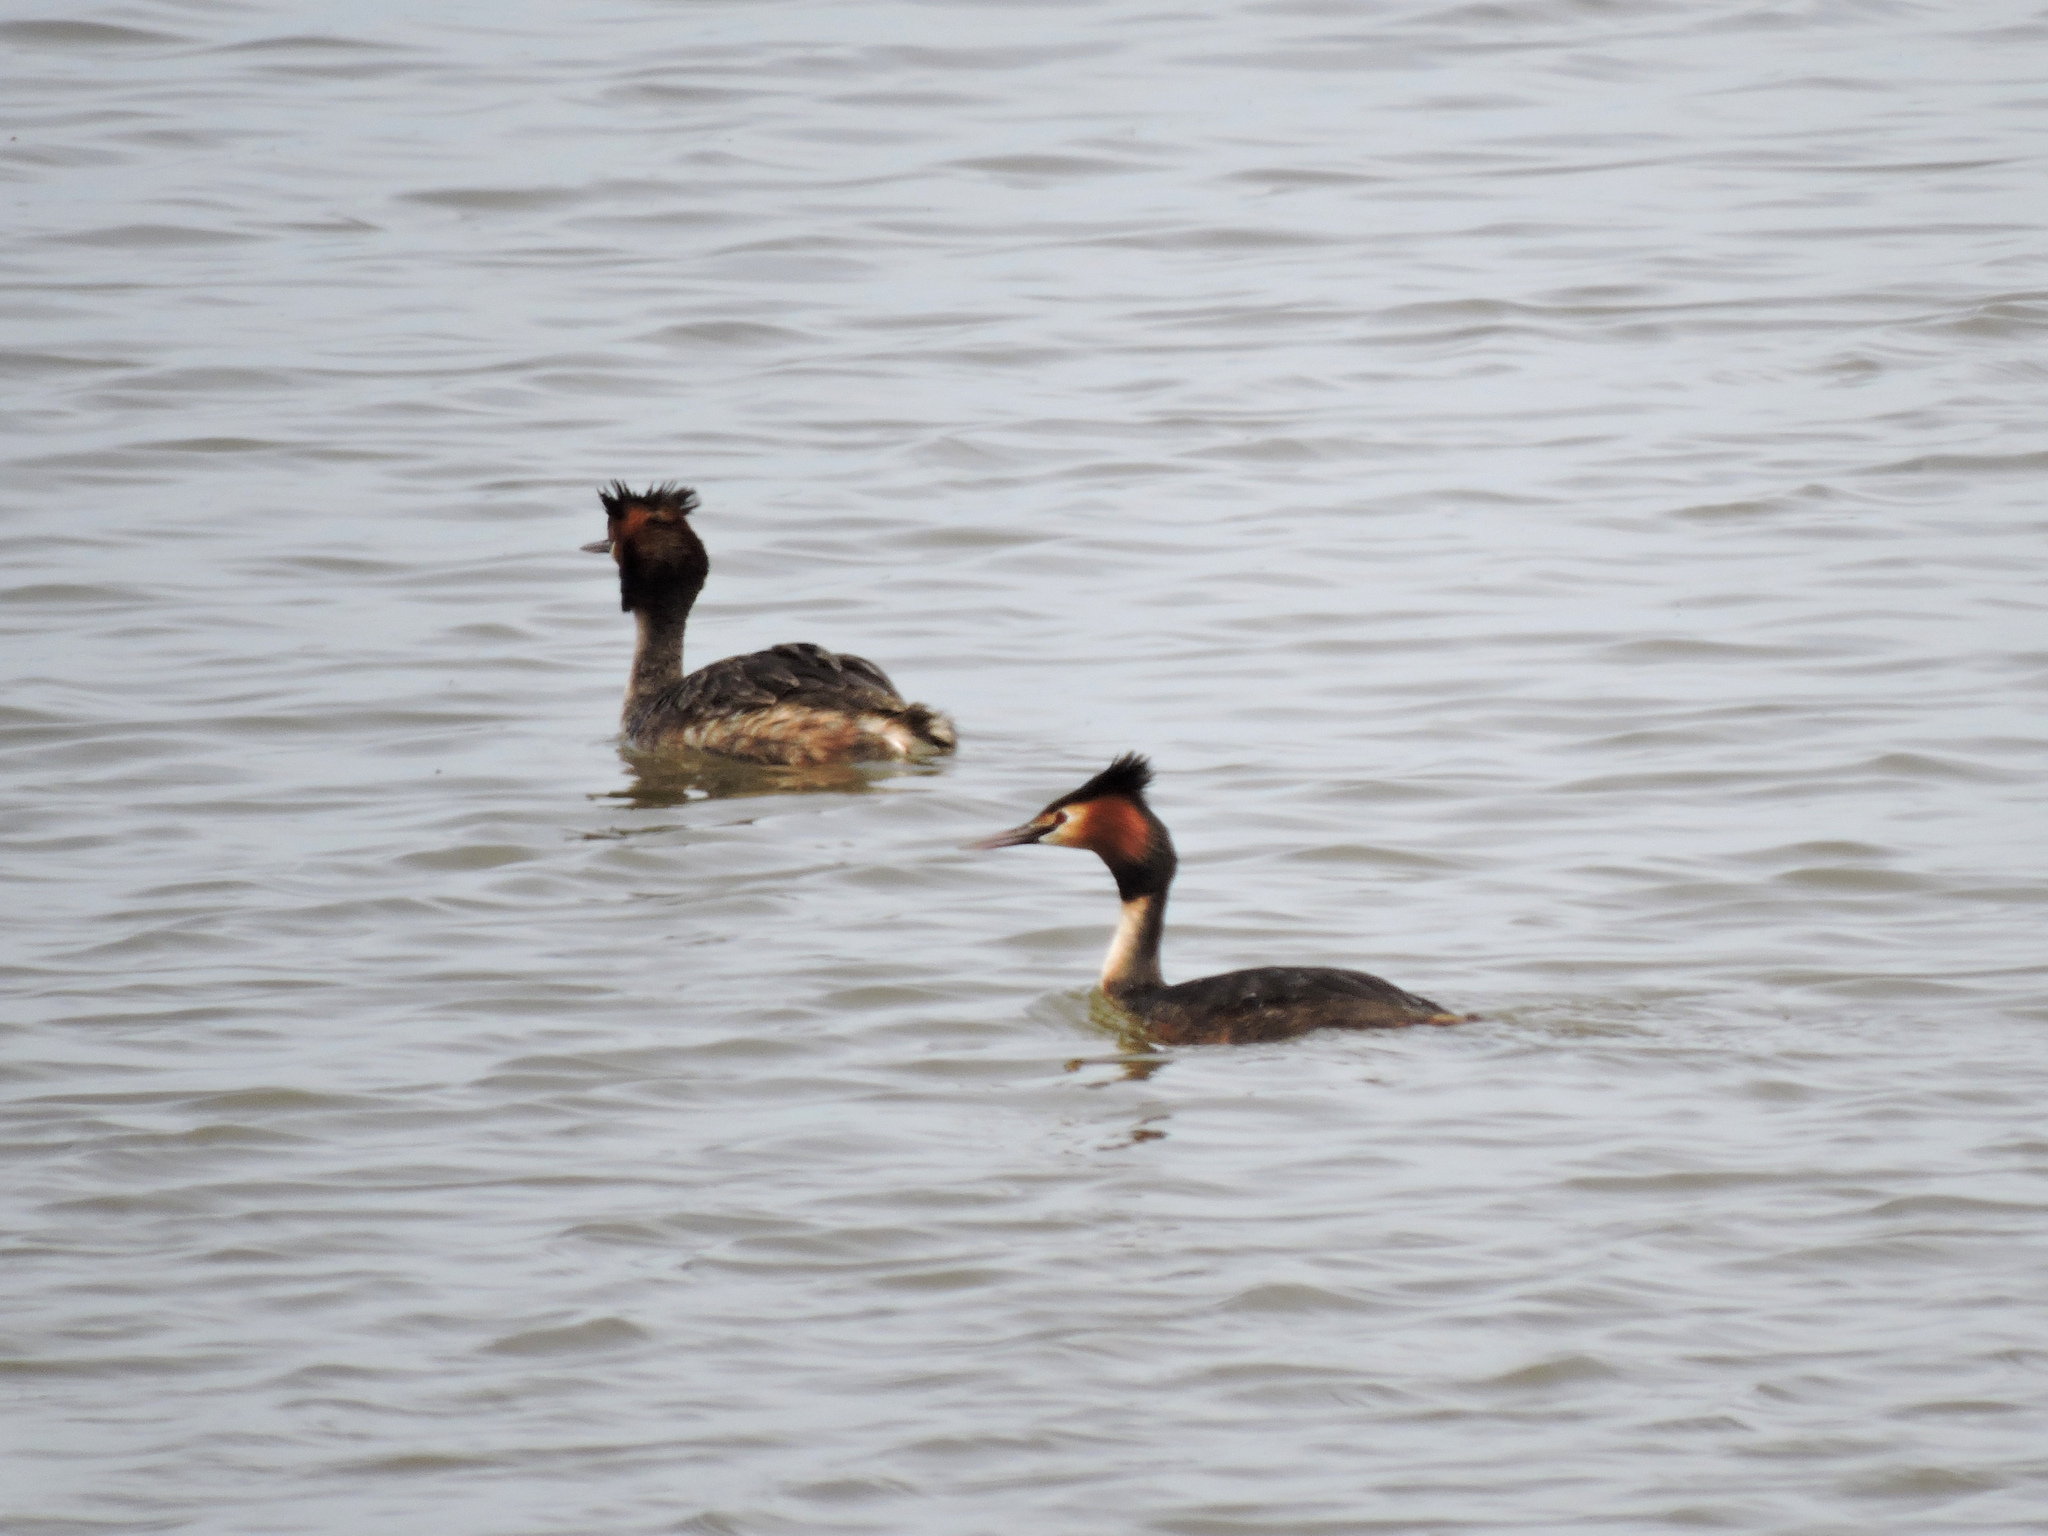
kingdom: Animalia
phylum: Chordata
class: Aves
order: Podicipediformes
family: Podicipedidae
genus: Podiceps
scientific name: Podiceps cristatus
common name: Great crested grebe
